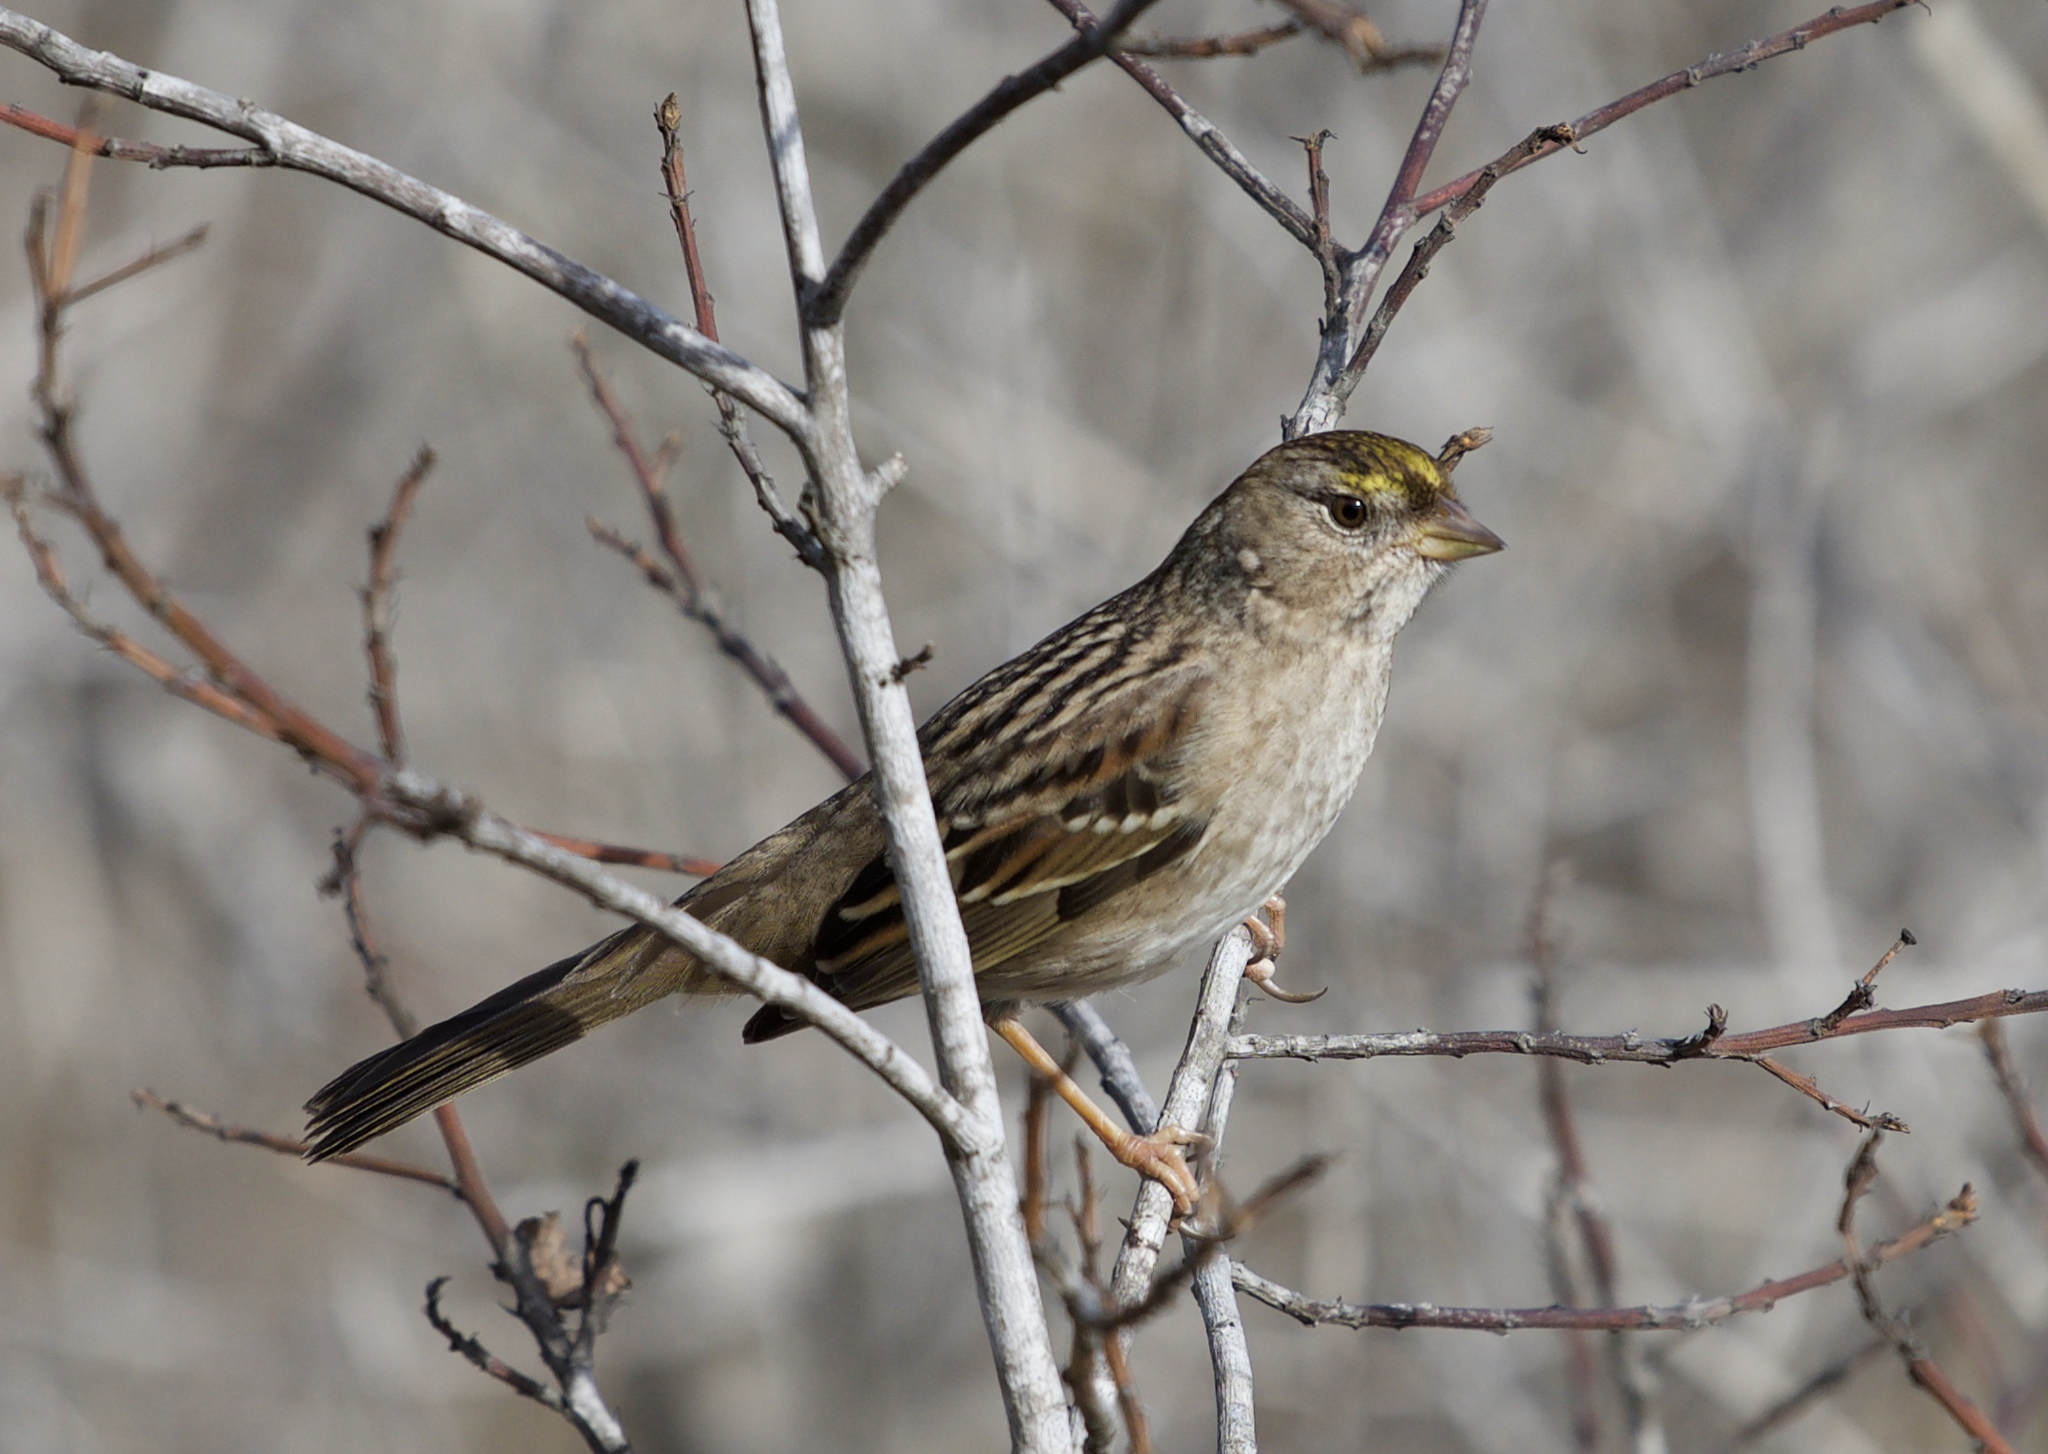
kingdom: Animalia
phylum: Chordata
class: Aves
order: Passeriformes
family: Passerellidae
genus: Zonotrichia
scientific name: Zonotrichia atricapilla
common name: Golden-crowned sparrow
